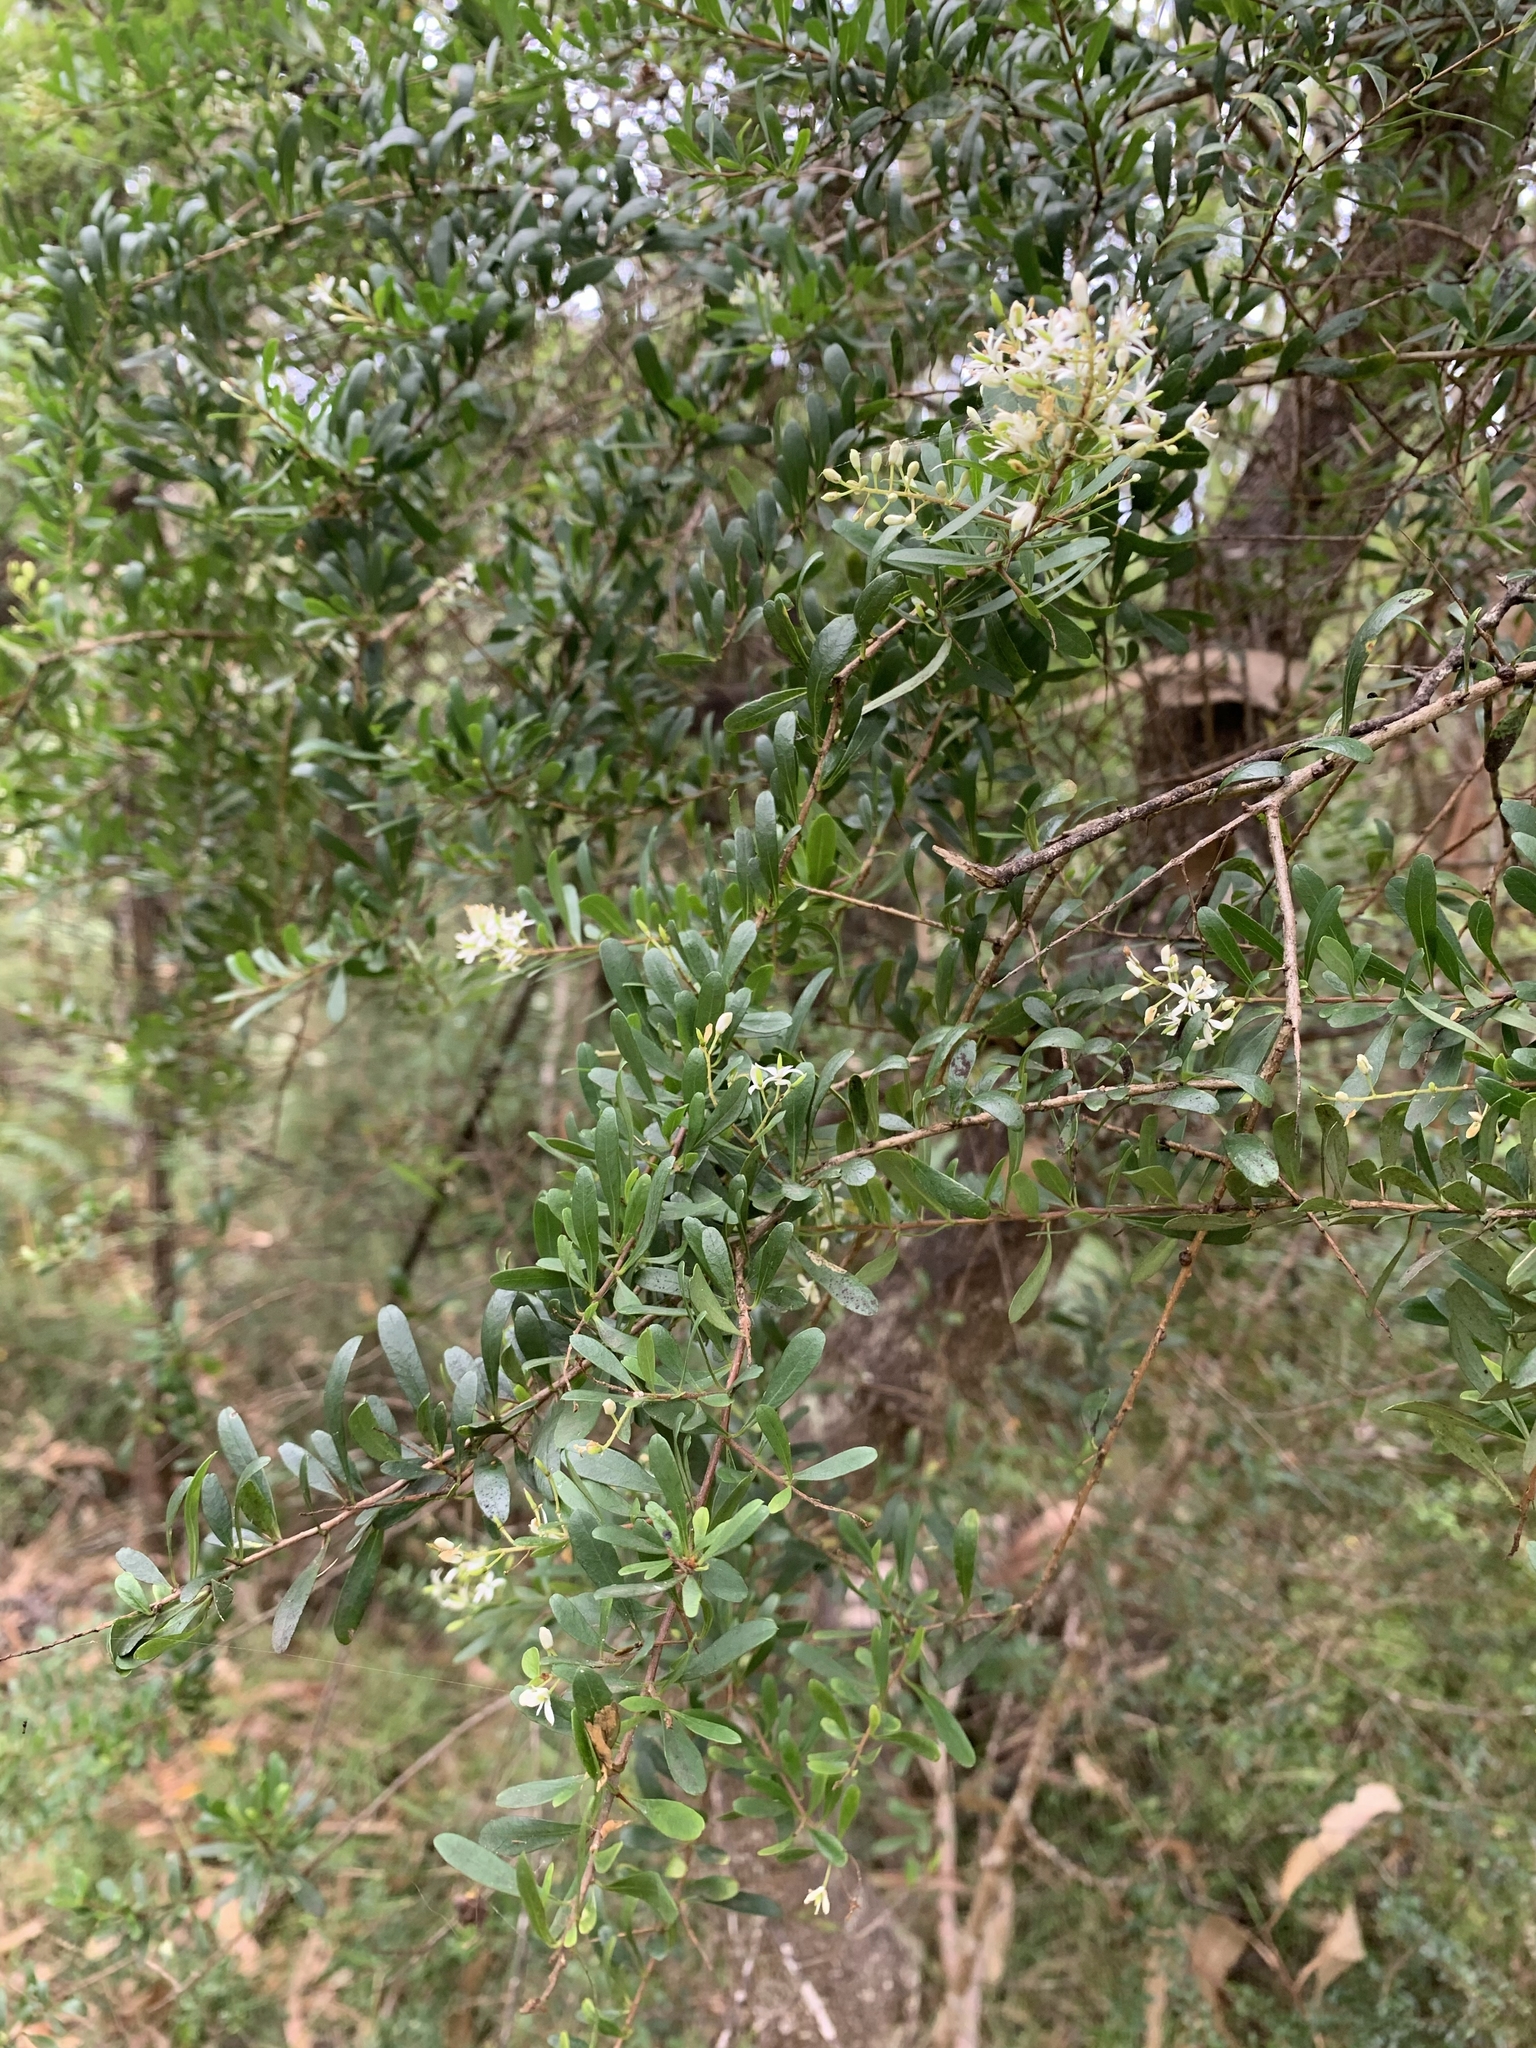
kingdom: Plantae
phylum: Tracheophyta
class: Magnoliopsida
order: Apiales
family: Pittosporaceae
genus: Bursaria
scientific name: Bursaria spinosa
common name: Australian blackthorn
